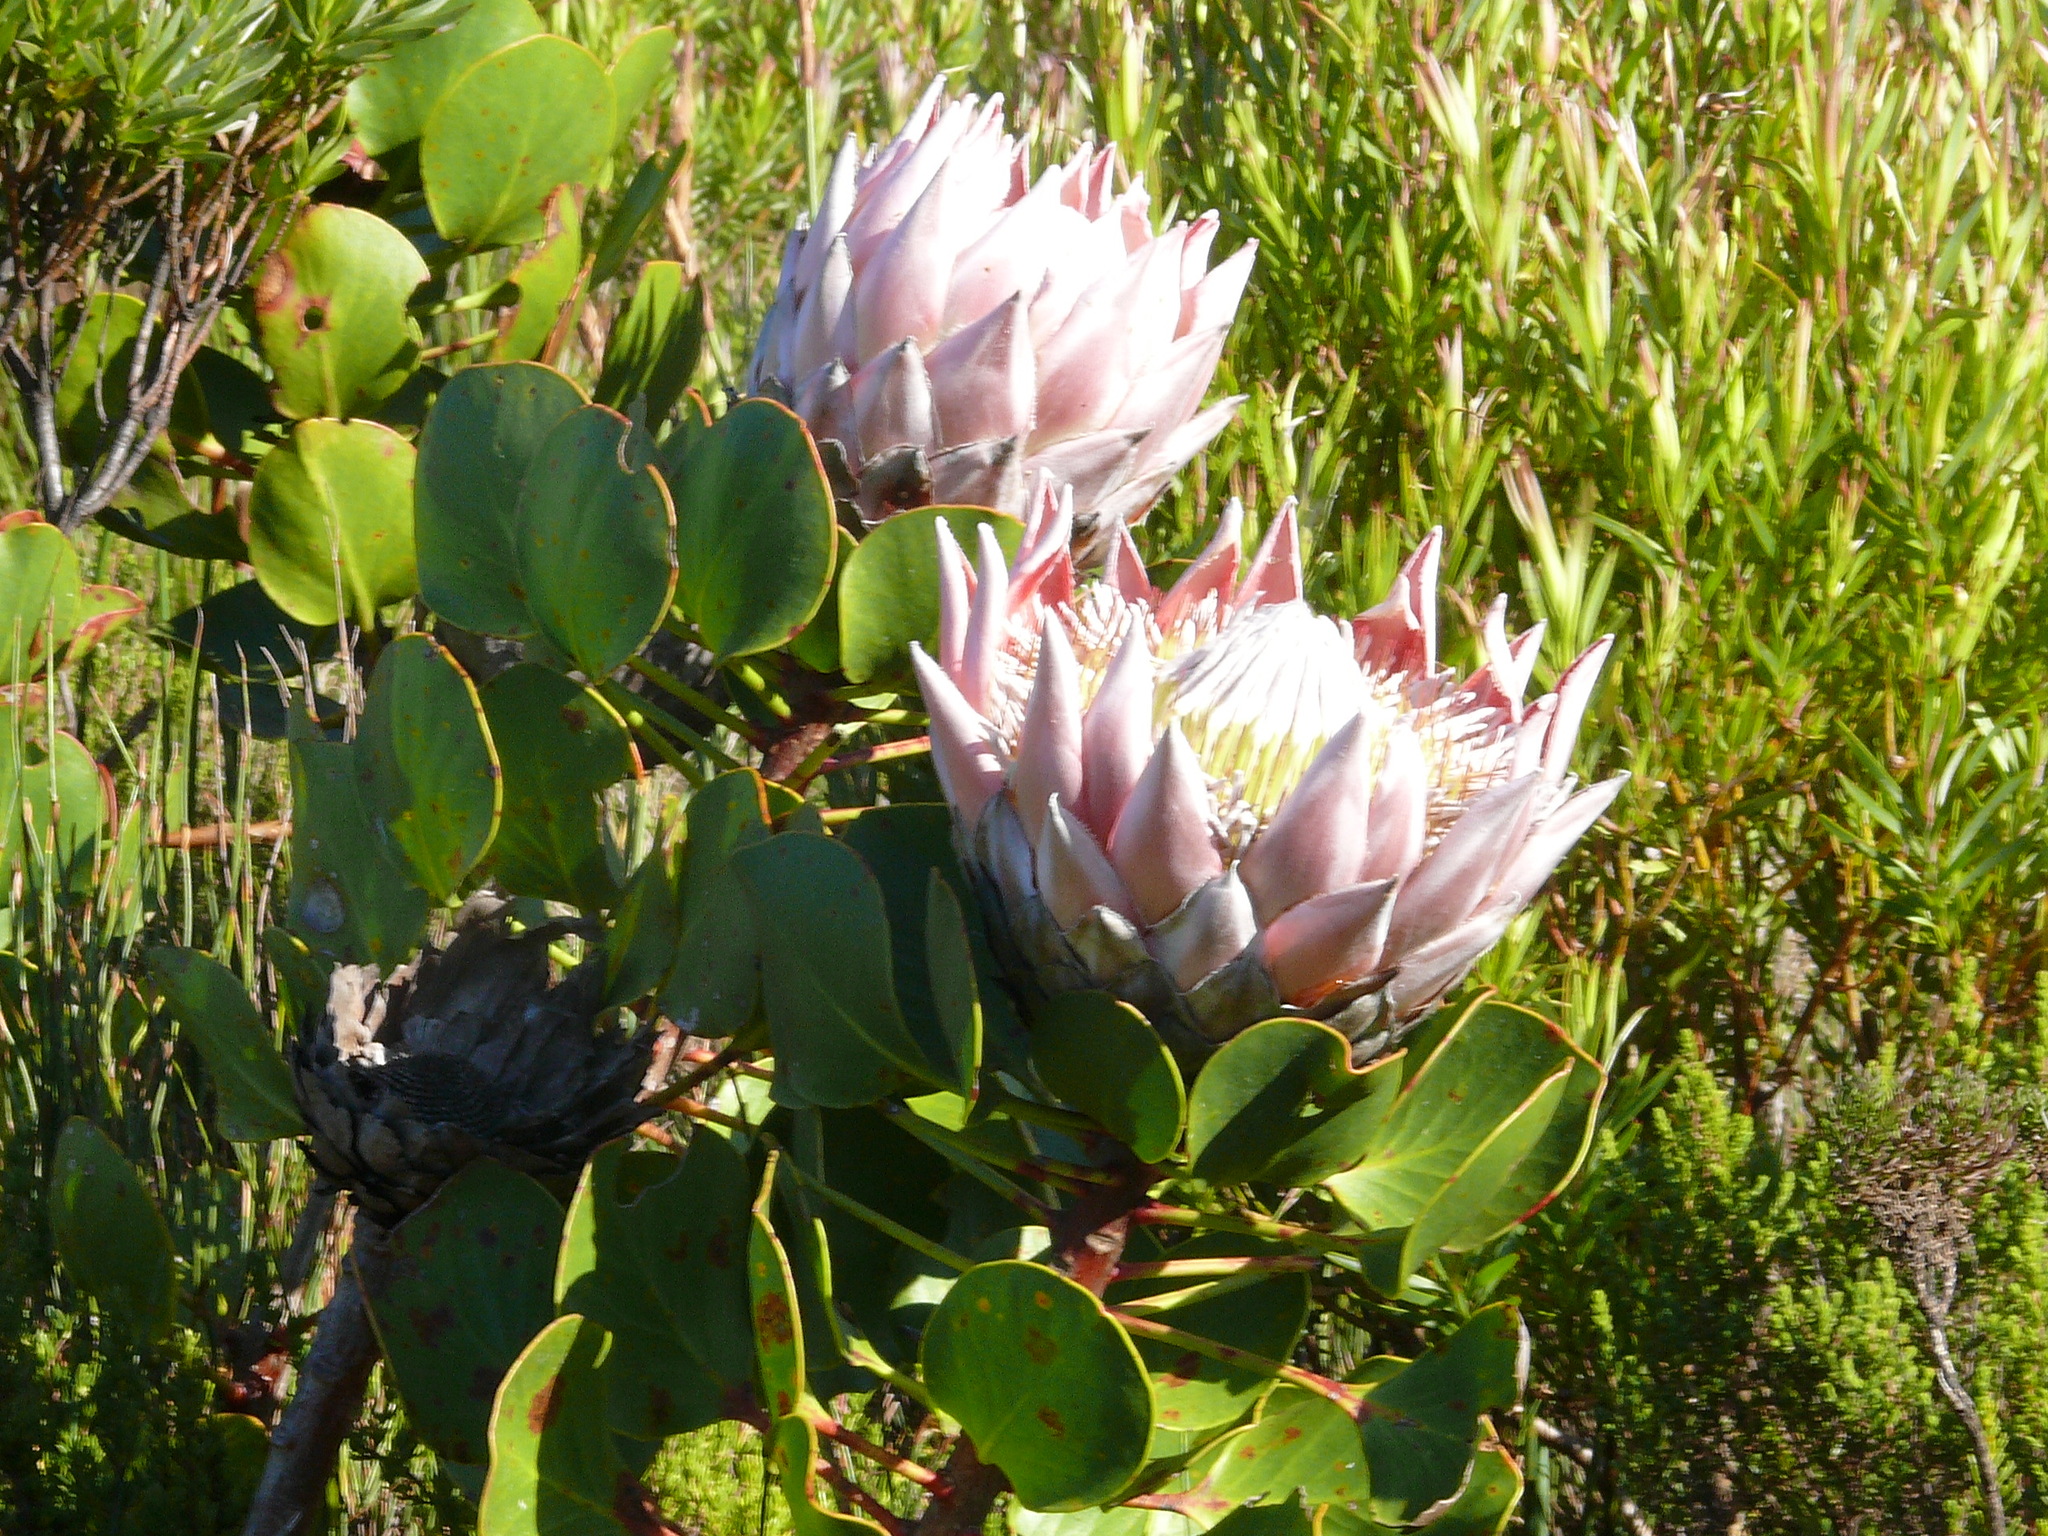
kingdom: Plantae
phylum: Tracheophyta
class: Magnoliopsida
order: Proteales
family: Proteaceae
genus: Protea
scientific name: Protea cynaroides
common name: King protea
